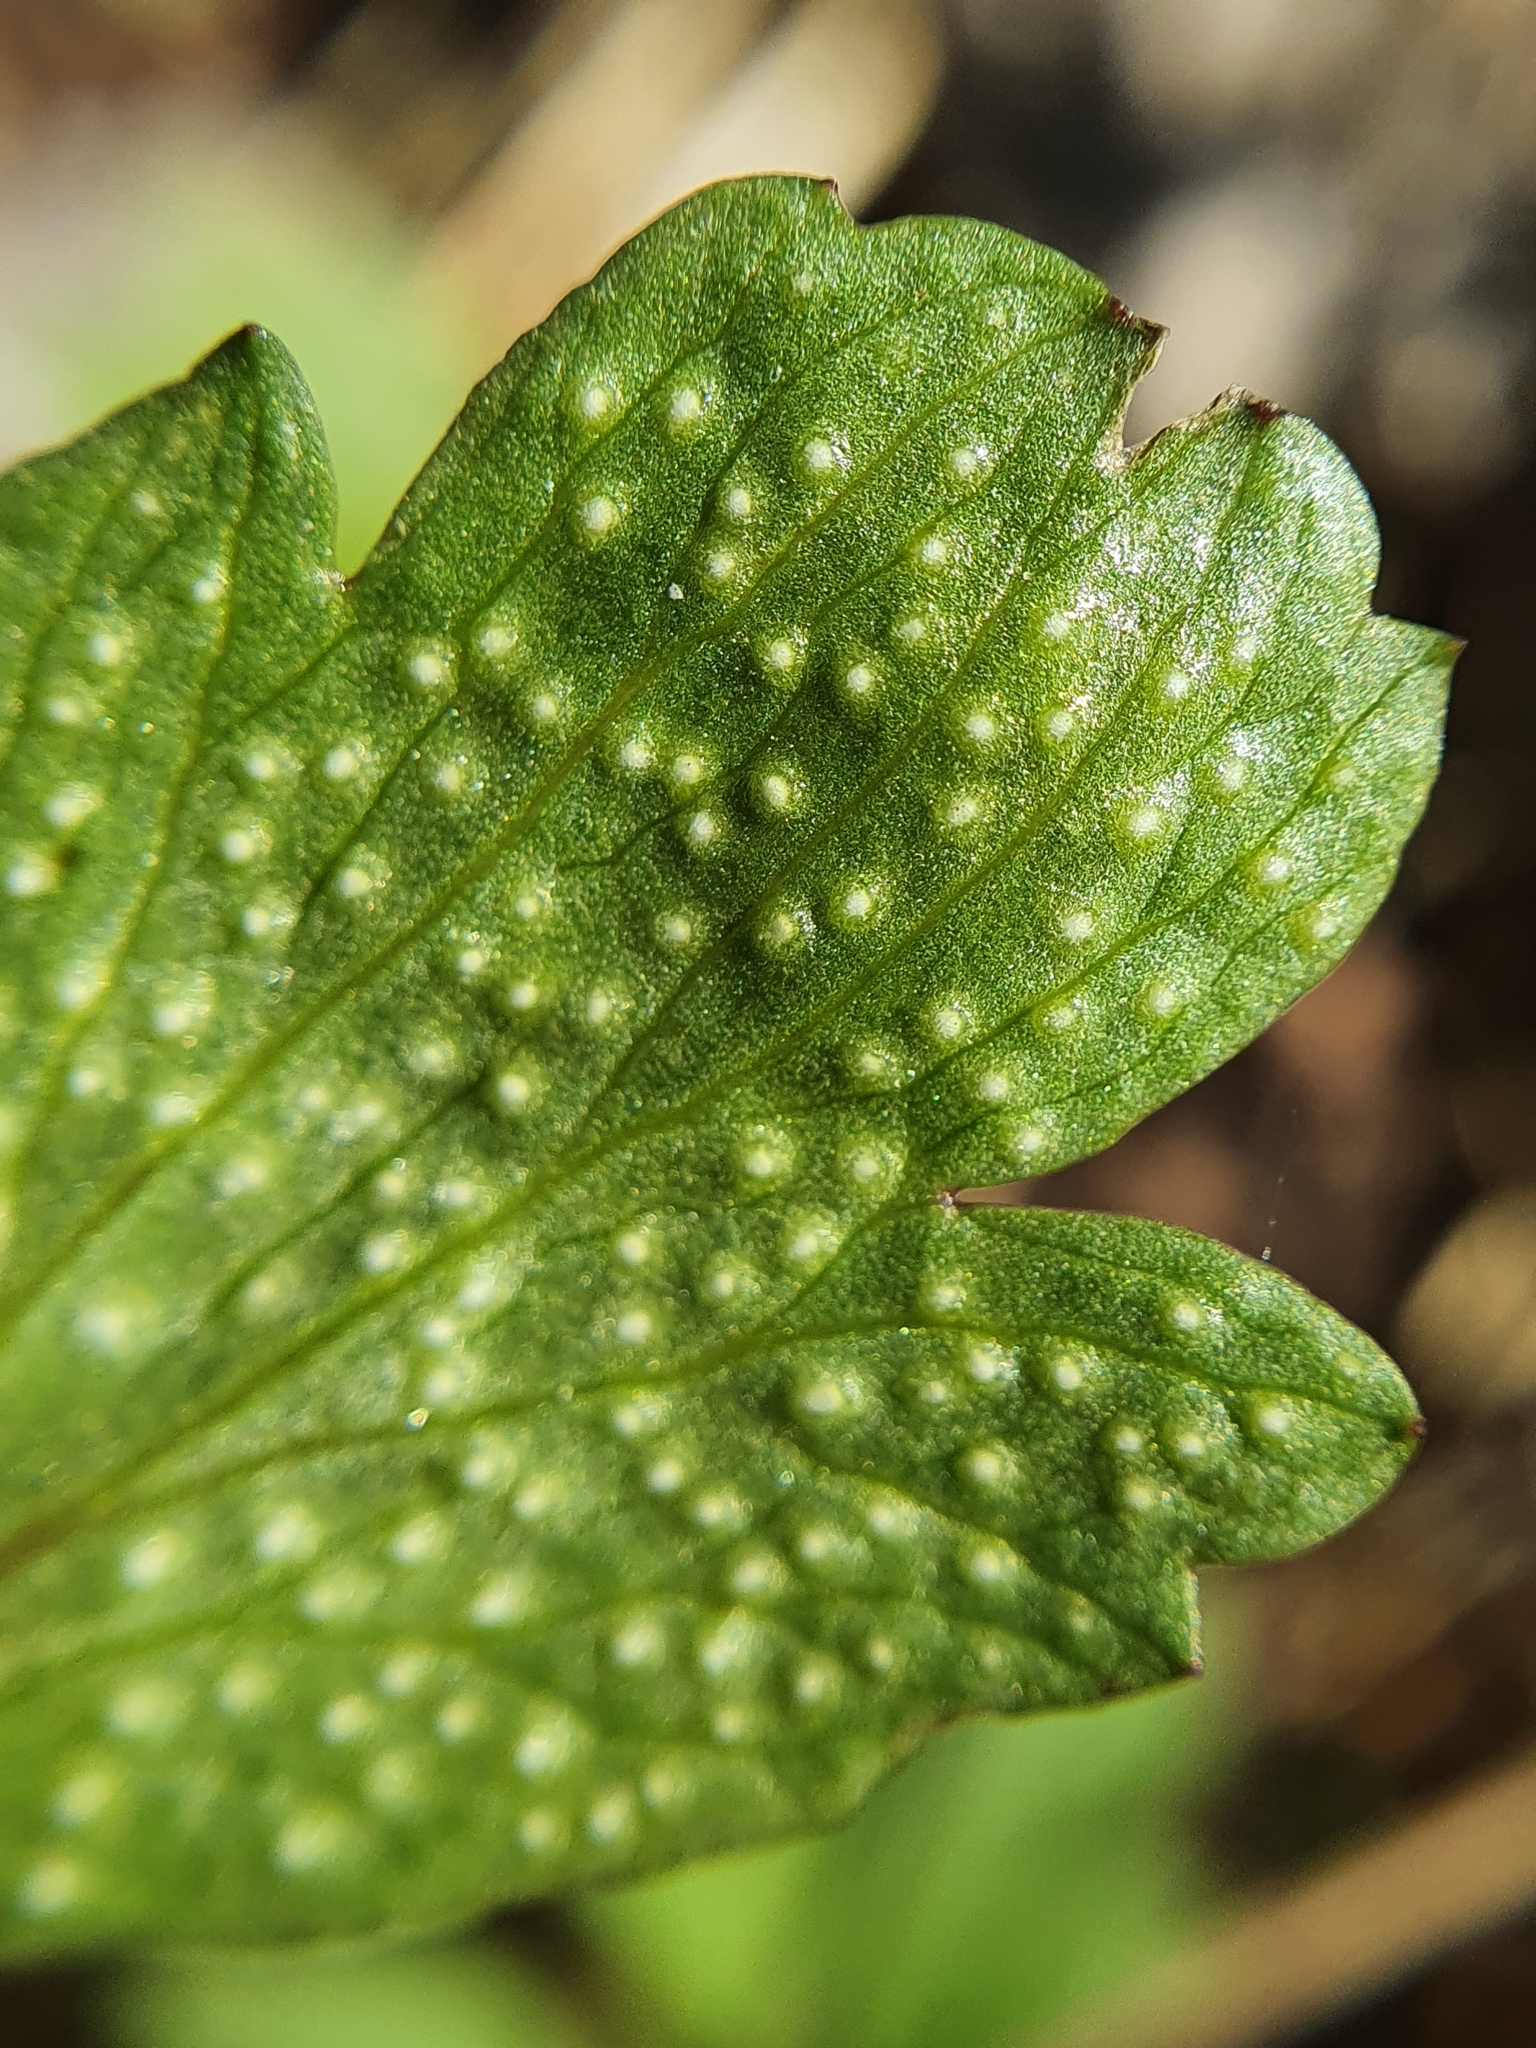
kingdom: Fungi
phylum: Basidiomycota
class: Pucciniomycetes
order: Pucciniales
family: Ochropsoraceae
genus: Ochropsora
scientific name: Ochropsora ariae
